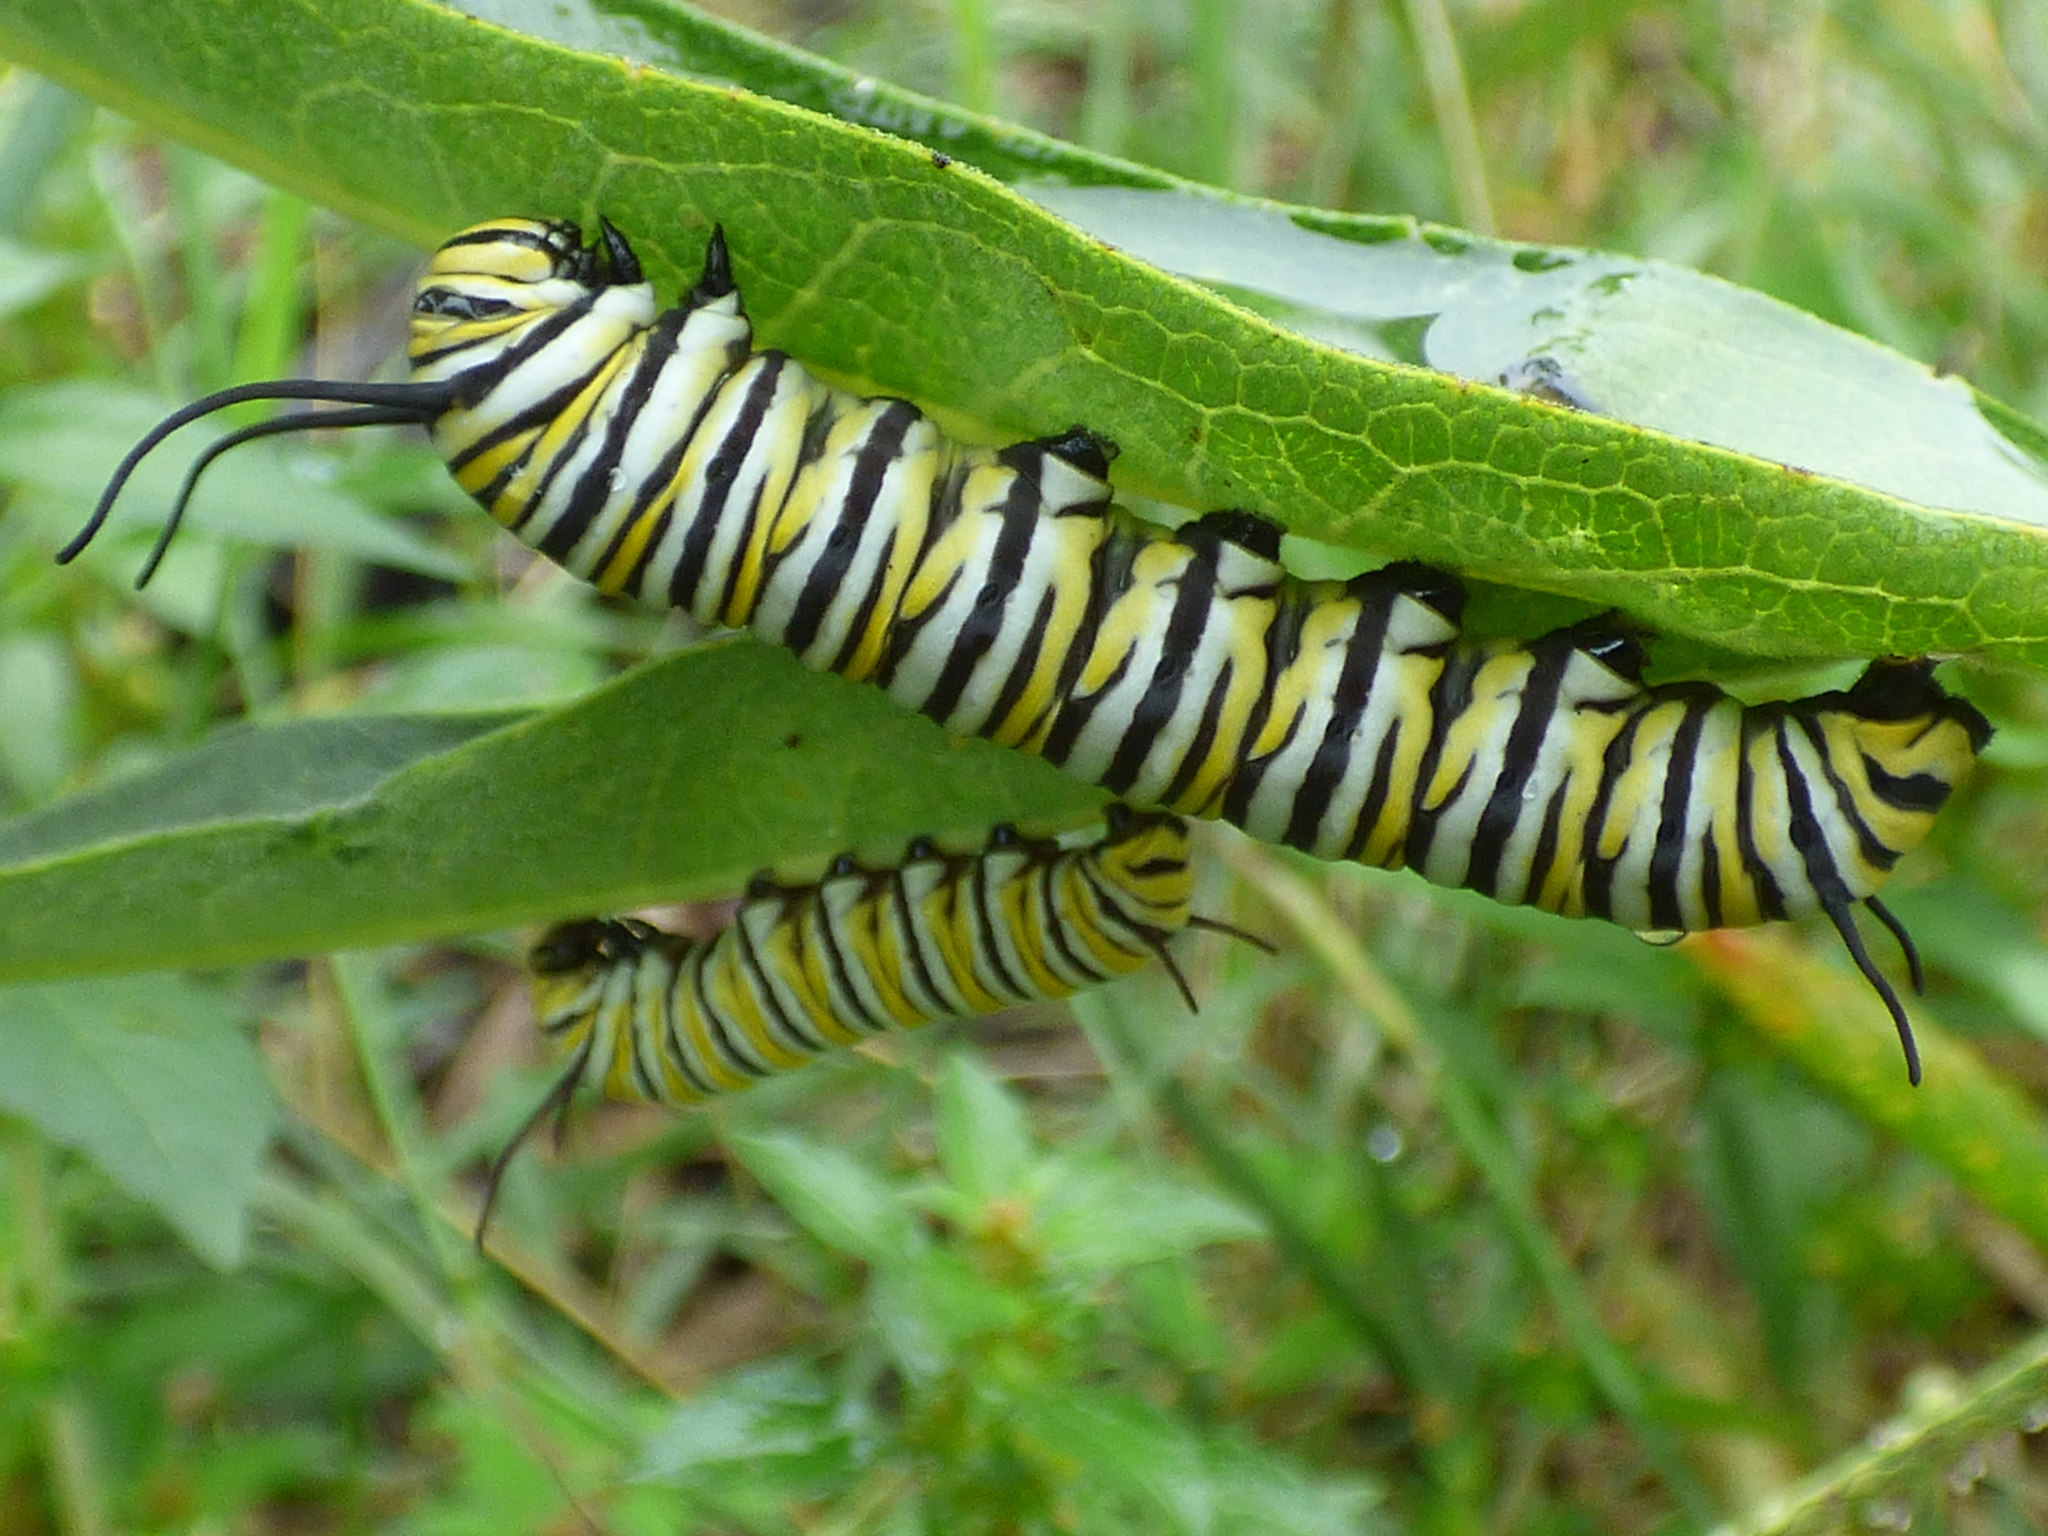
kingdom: Animalia
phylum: Arthropoda
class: Insecta
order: Lepidoptera
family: Nymphalidae
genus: Danaus
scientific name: Danaus plexippus
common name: Monarch
